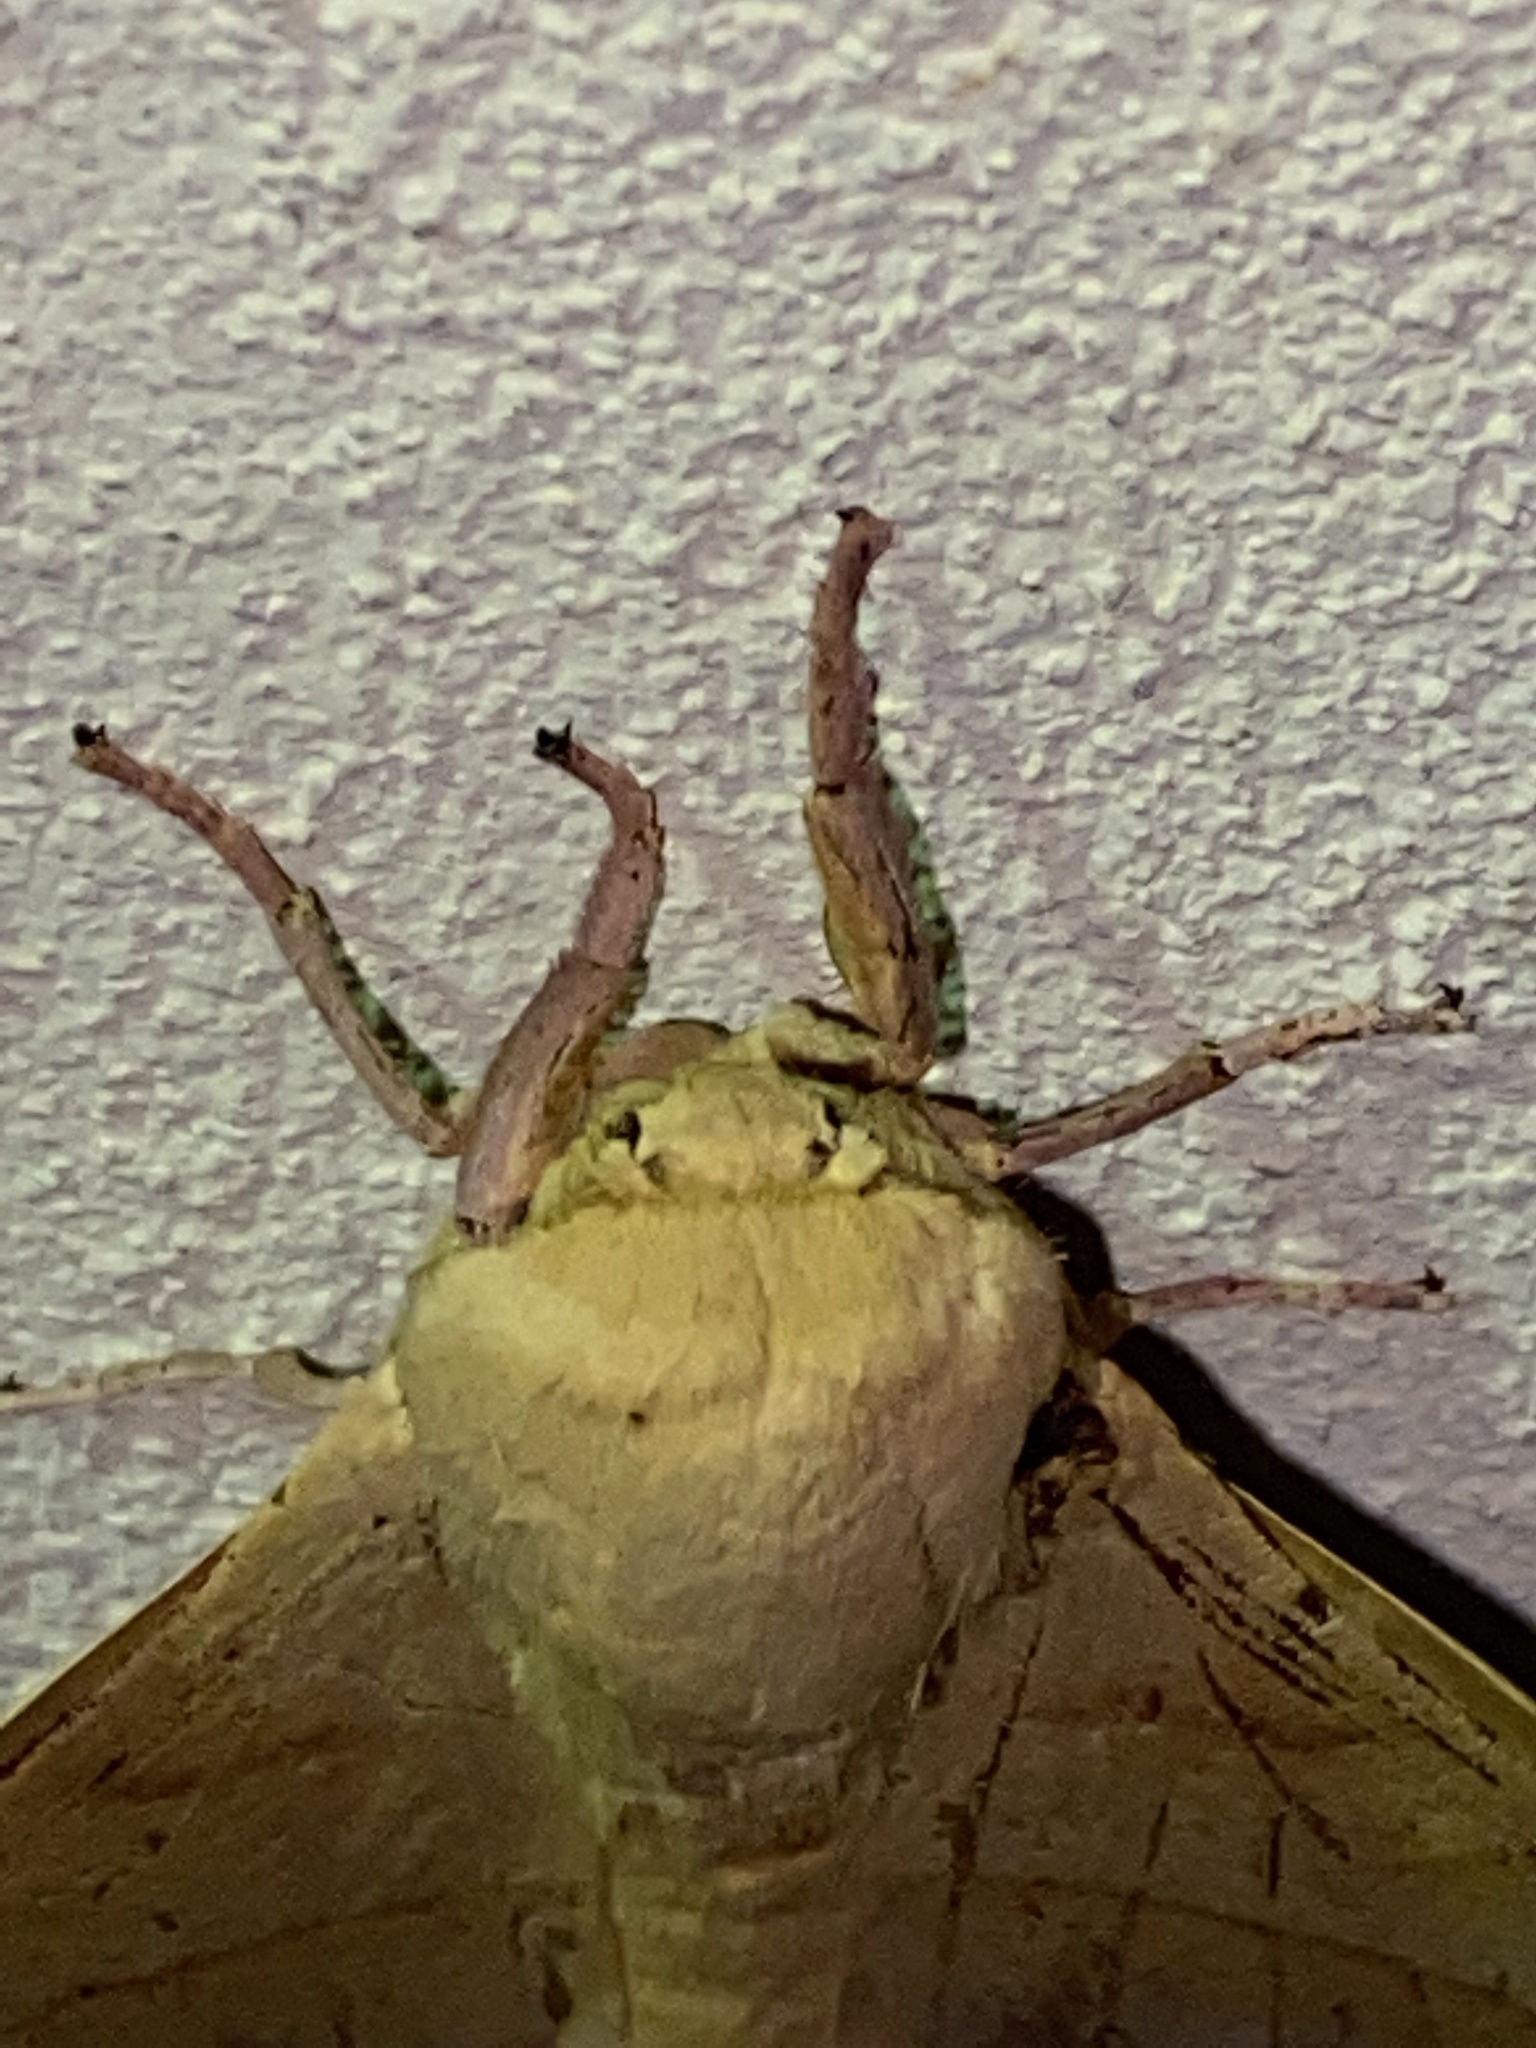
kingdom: Animalia
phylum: Arthropoda
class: Insecta
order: Lepidoptera
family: Saturniidae
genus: Syssphinx
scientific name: Syssphinx molina
